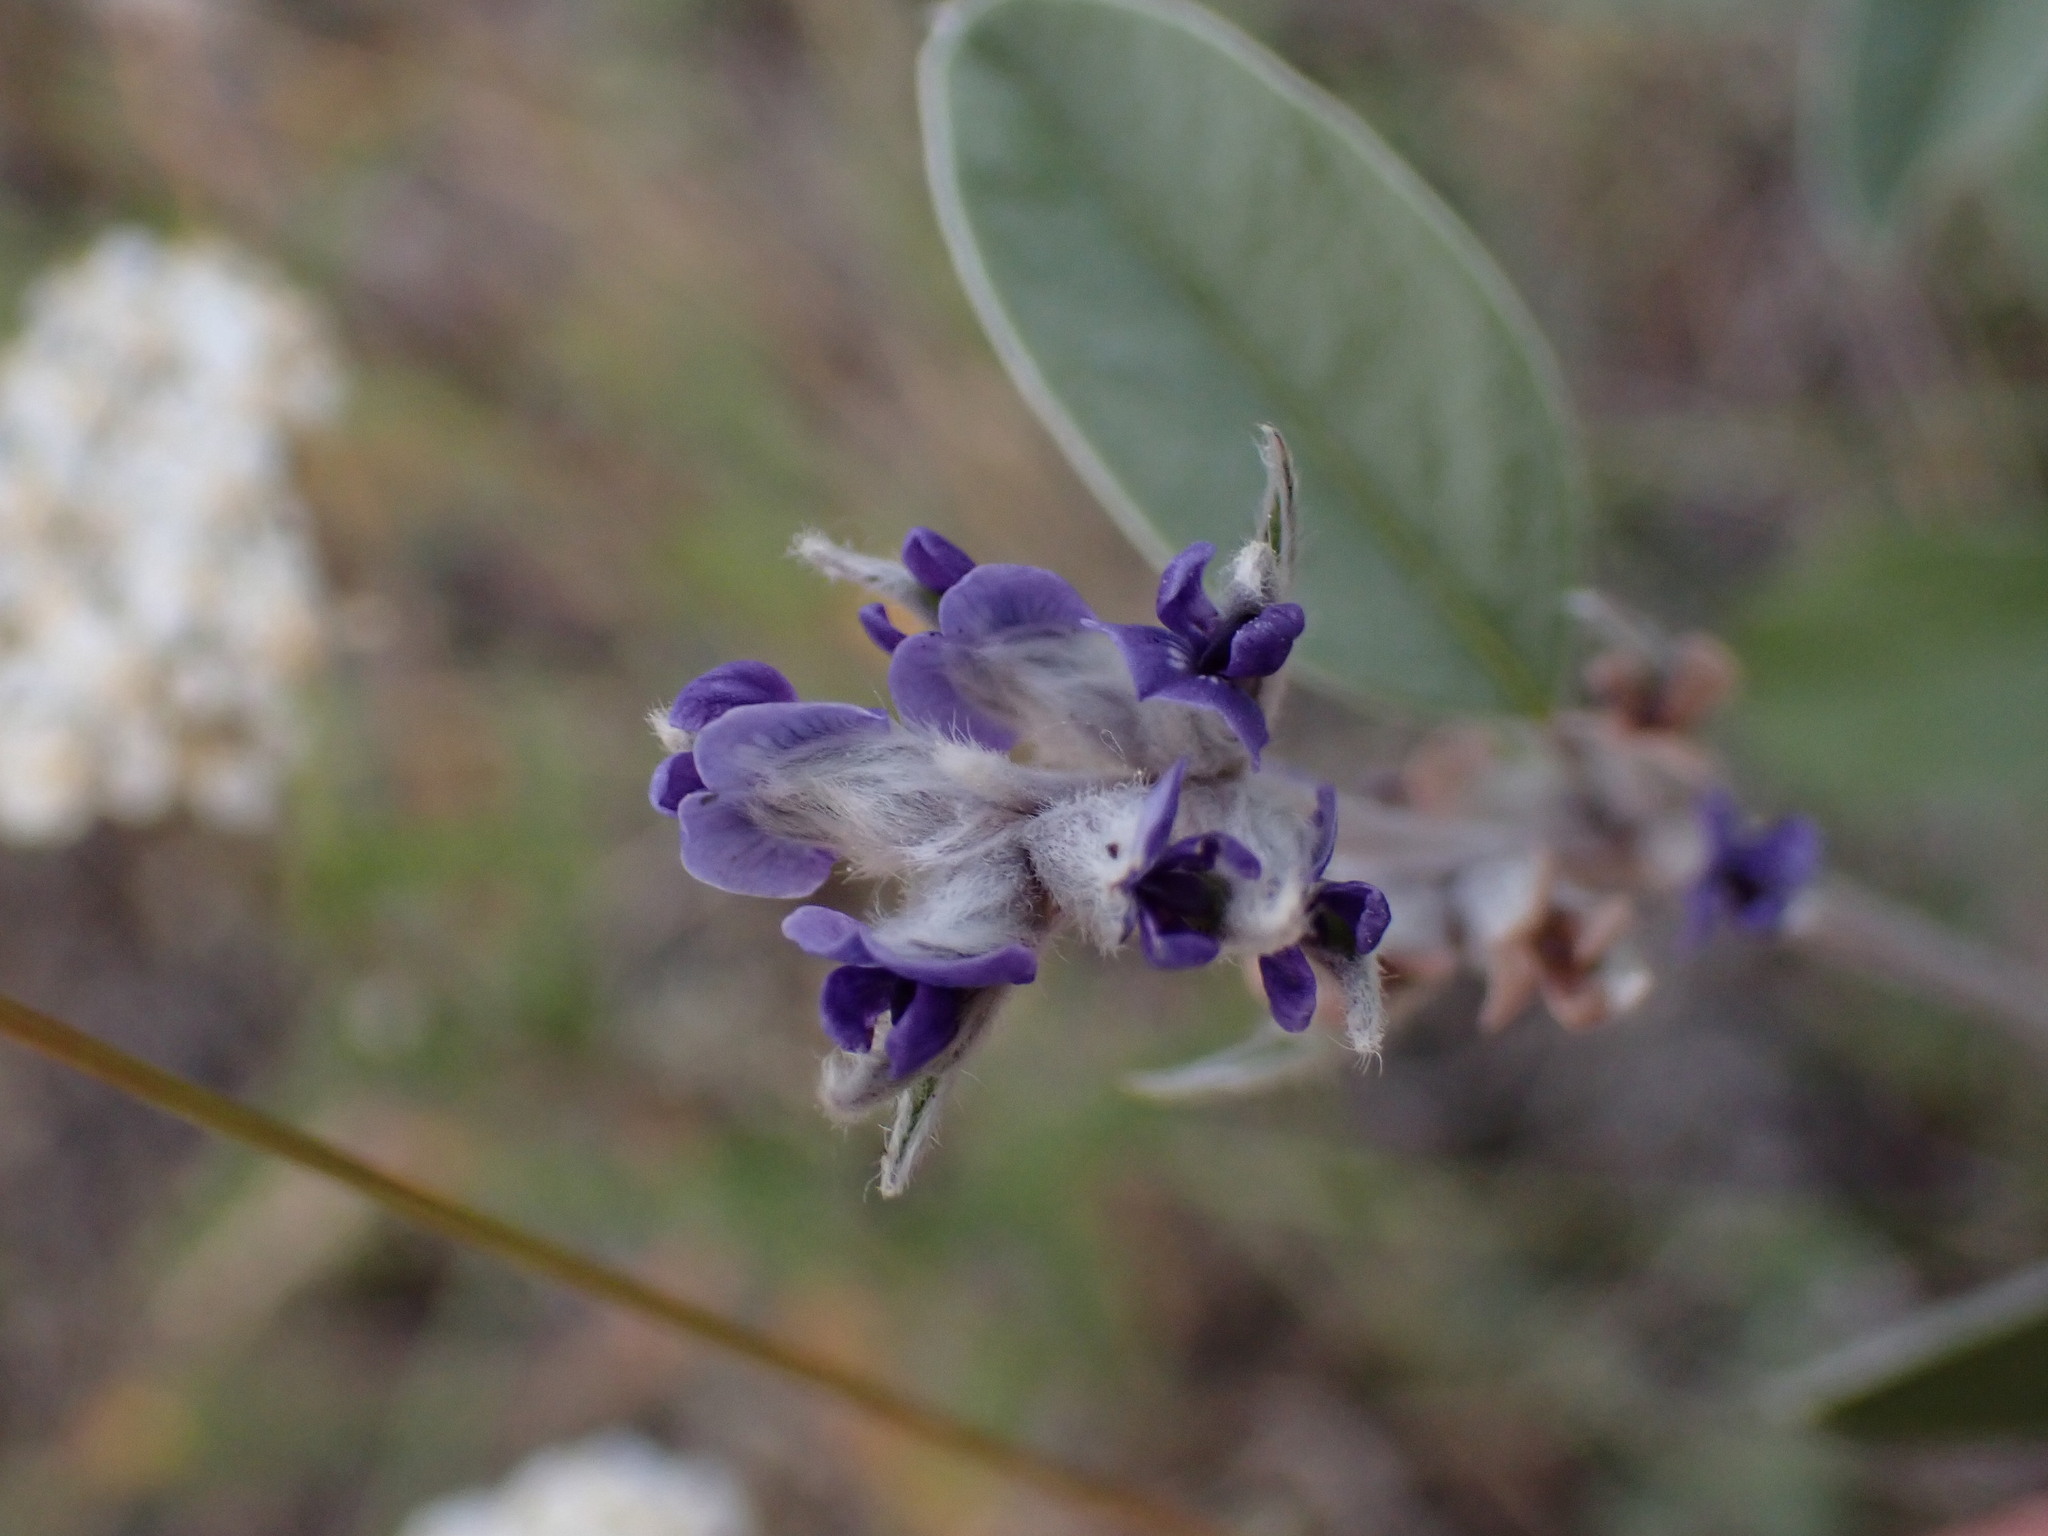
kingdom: Plantae
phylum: Tracheophyta
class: Magnoliopsida
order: Fabales
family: Fabaceae
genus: Pediomelum
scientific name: Pediomelum argophyllum
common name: Silver-leaved indian breadroot
